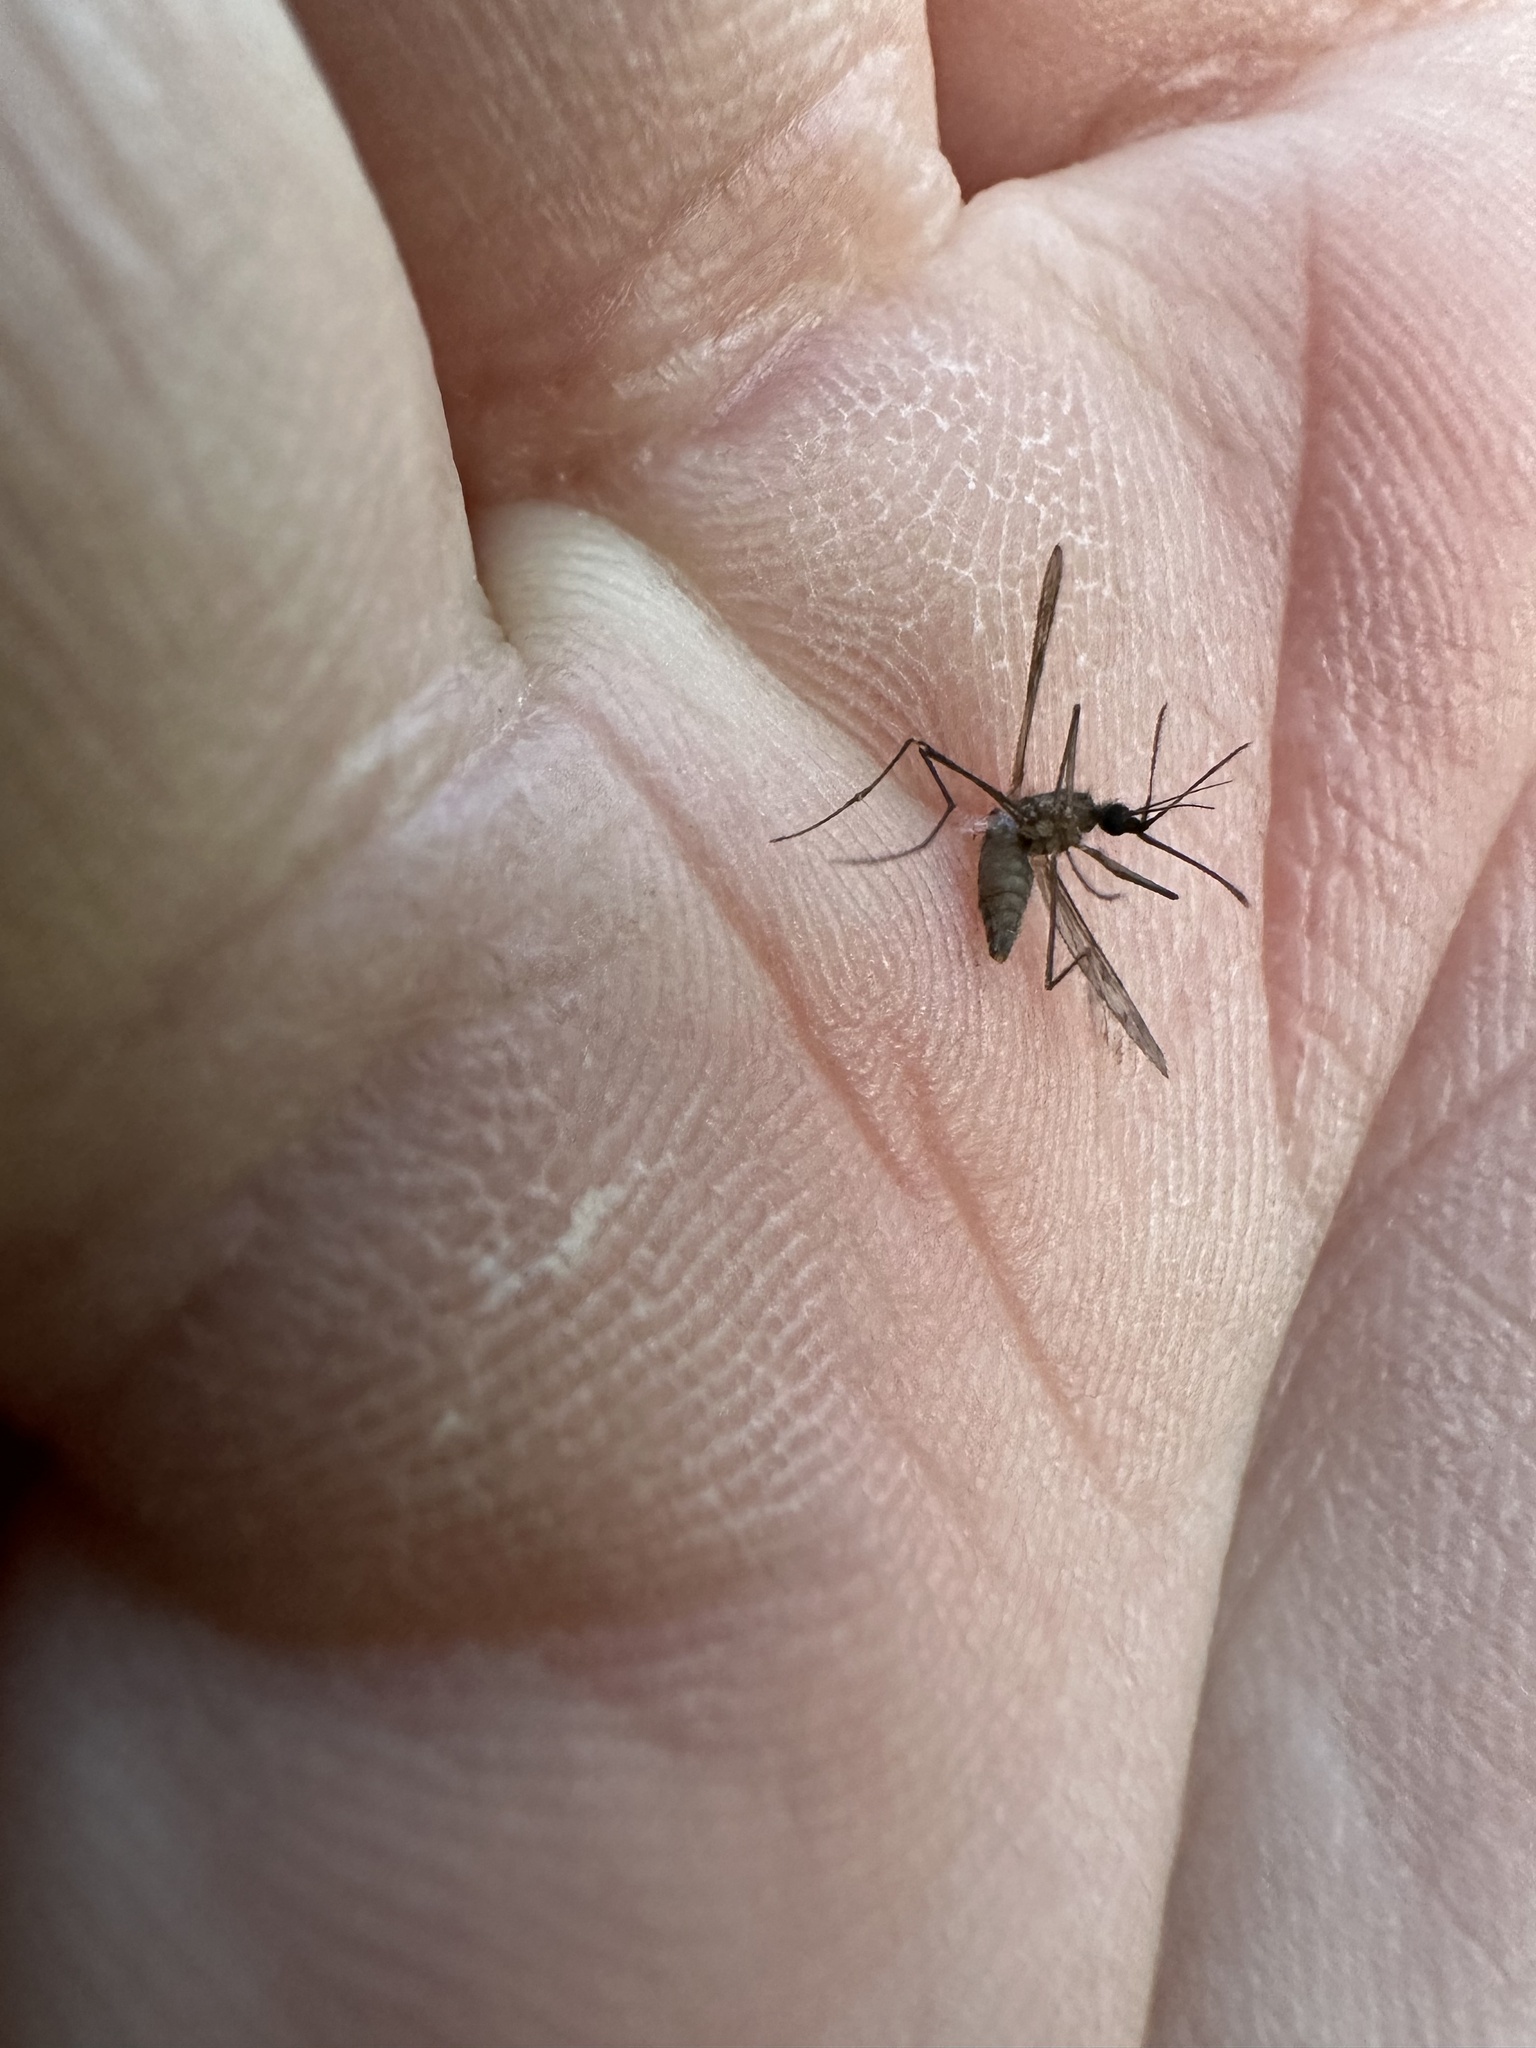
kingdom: Animalia
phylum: Arthropoda
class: Insecta
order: Diptera
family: Culicidae
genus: Anopheles
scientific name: Anopheles quadrimaculatus
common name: Common malaria mosquito
